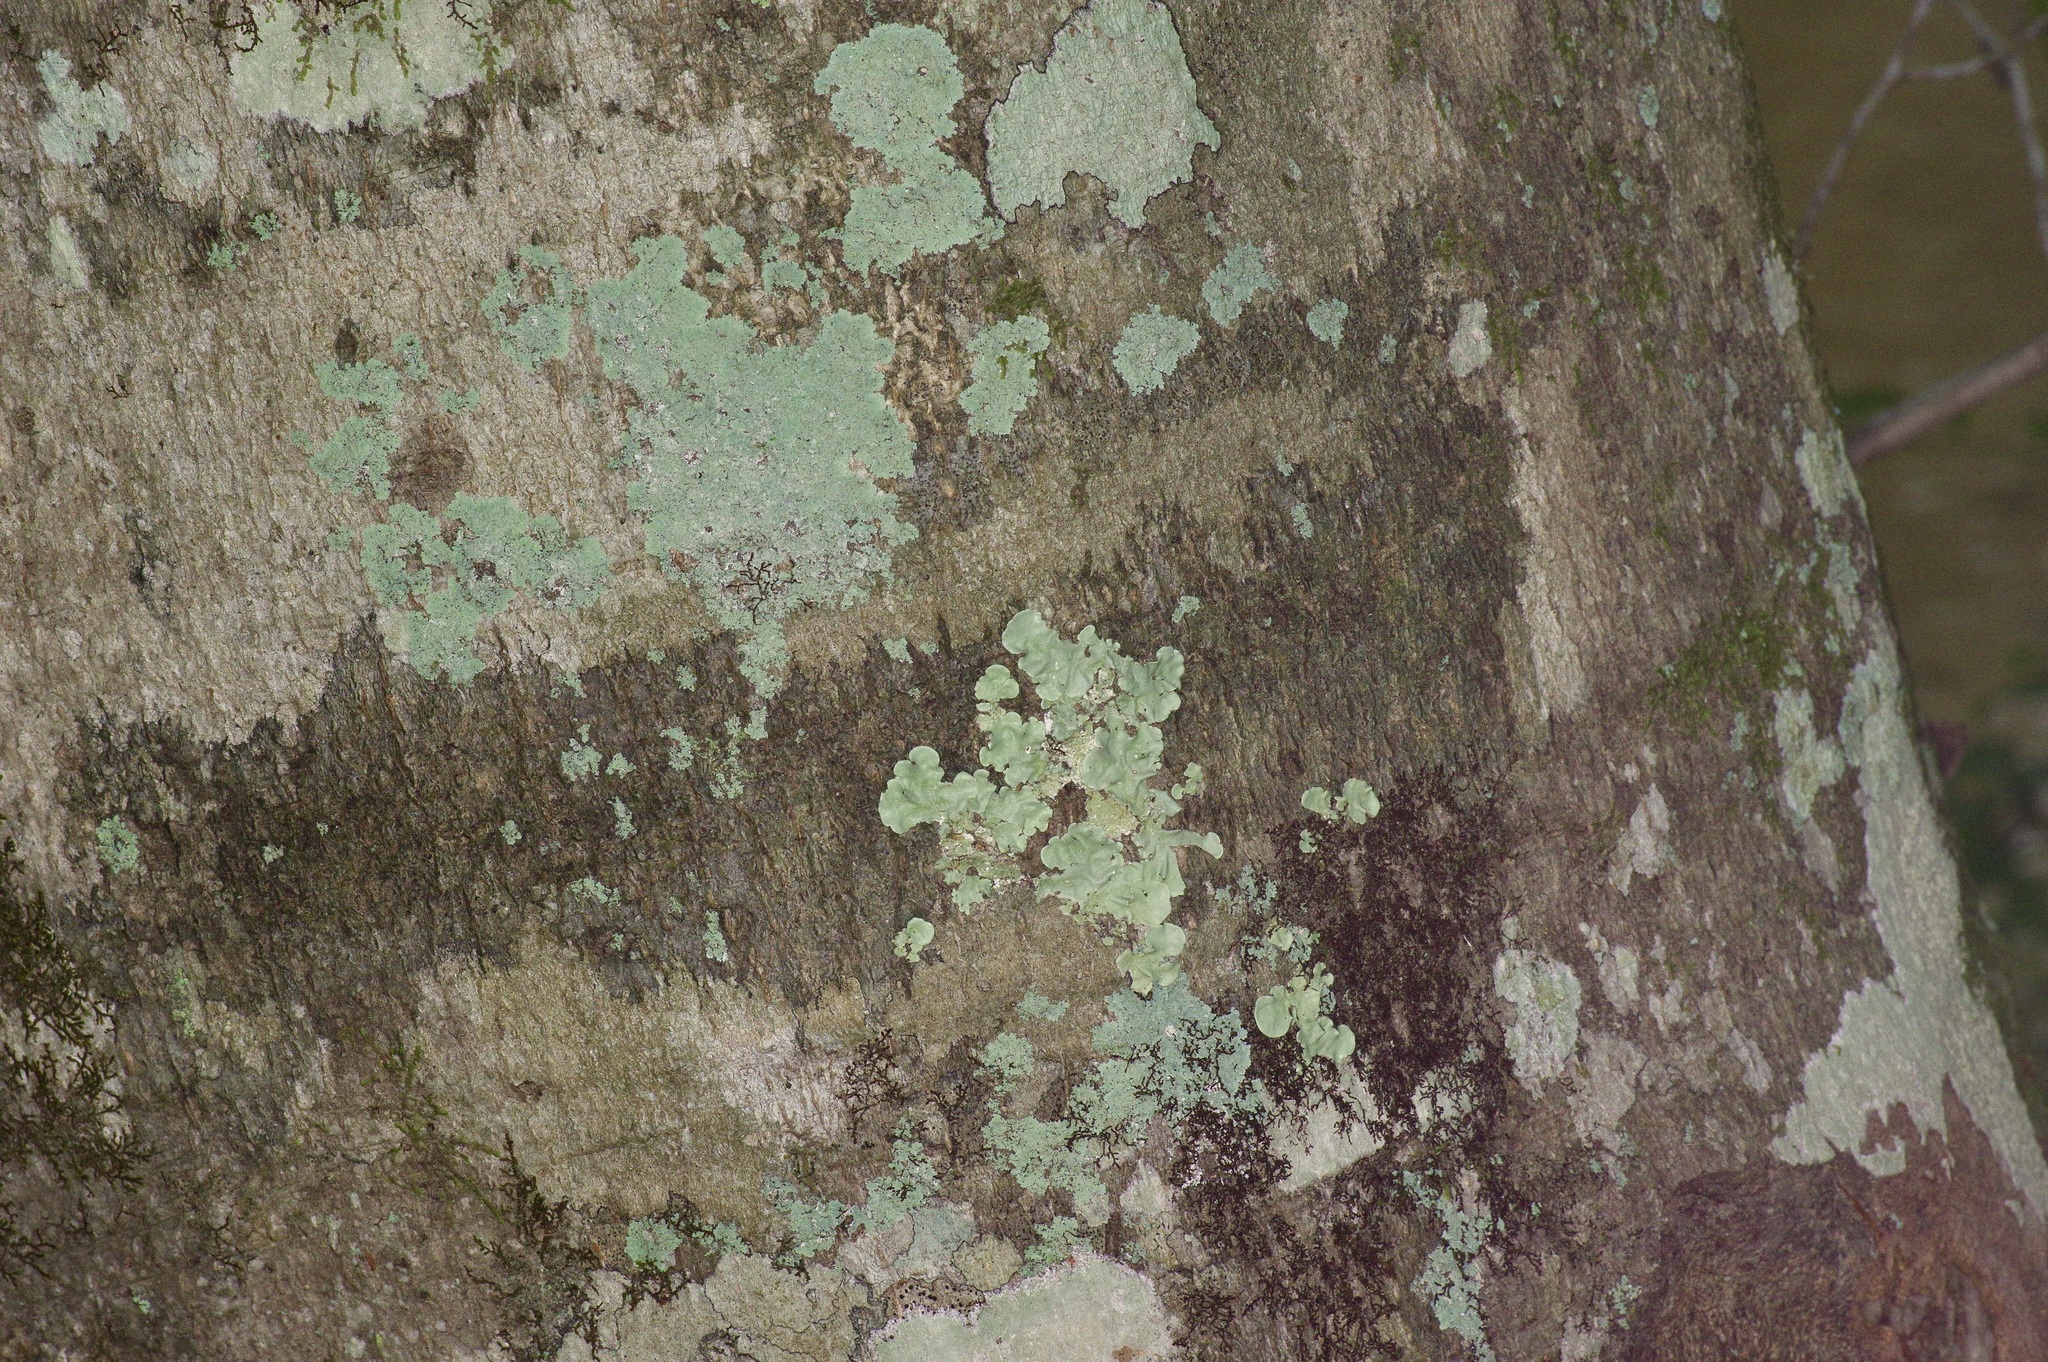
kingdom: Plantae
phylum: Tracheophyta
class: Magnoliopsida
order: Fagales
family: Fagaceae
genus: Fagus
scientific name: Fagus grandifolia
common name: American beech
